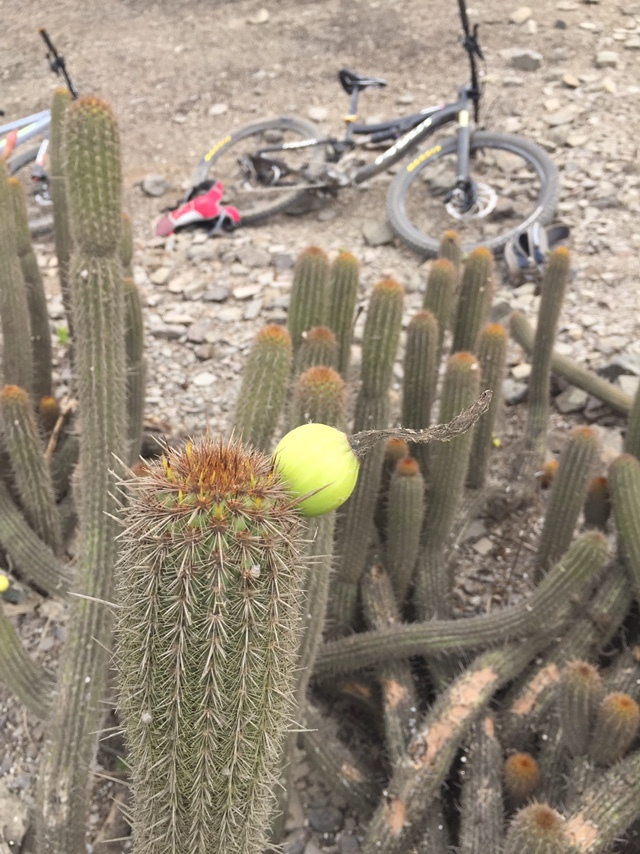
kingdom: Plantae
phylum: Tracheophyta
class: Magnoliopsida
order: Caryophyllales
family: Cactaceae
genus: Haageocereus
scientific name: Haageocereus acranthus
